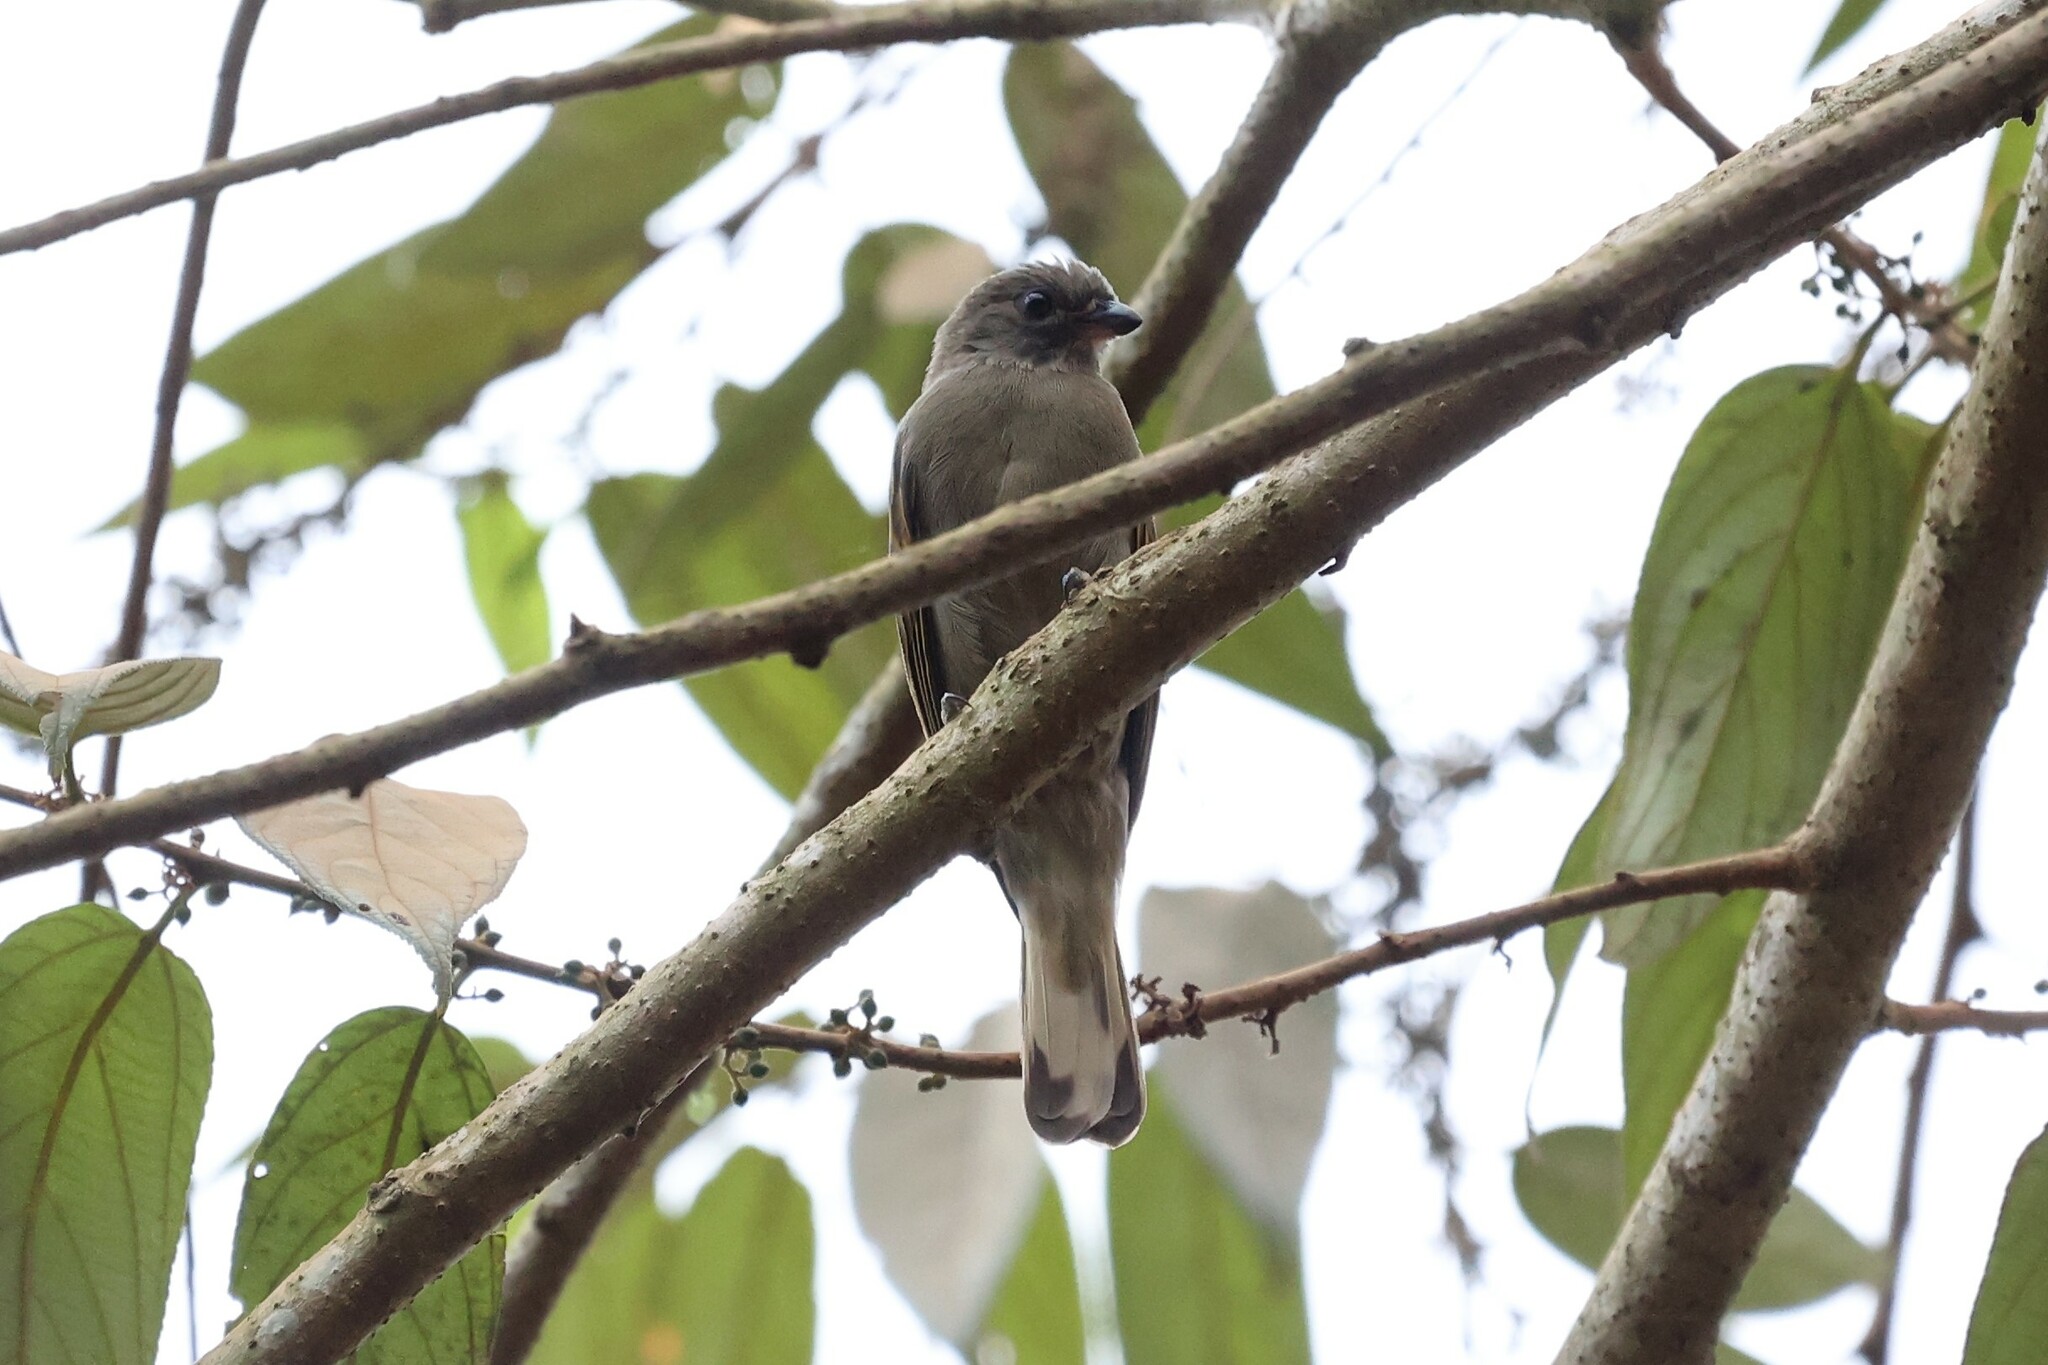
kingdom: Animalia
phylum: Chordata
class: Aves
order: Piciformes
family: Indicatoridae
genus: Indicator
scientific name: Indicator minor
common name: Lesser honeyguide
